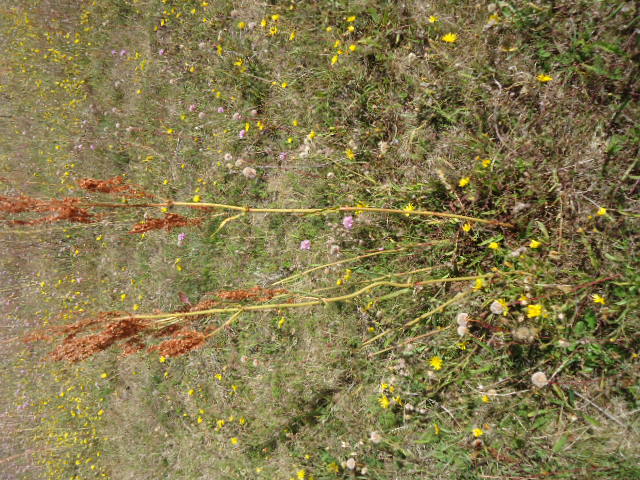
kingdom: Plantae
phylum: Tracheophyta
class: Magnoliopsida
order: Caryophyllales
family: Polygonaceae
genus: Rumex
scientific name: Rumex acetosa
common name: Garden sorrel
